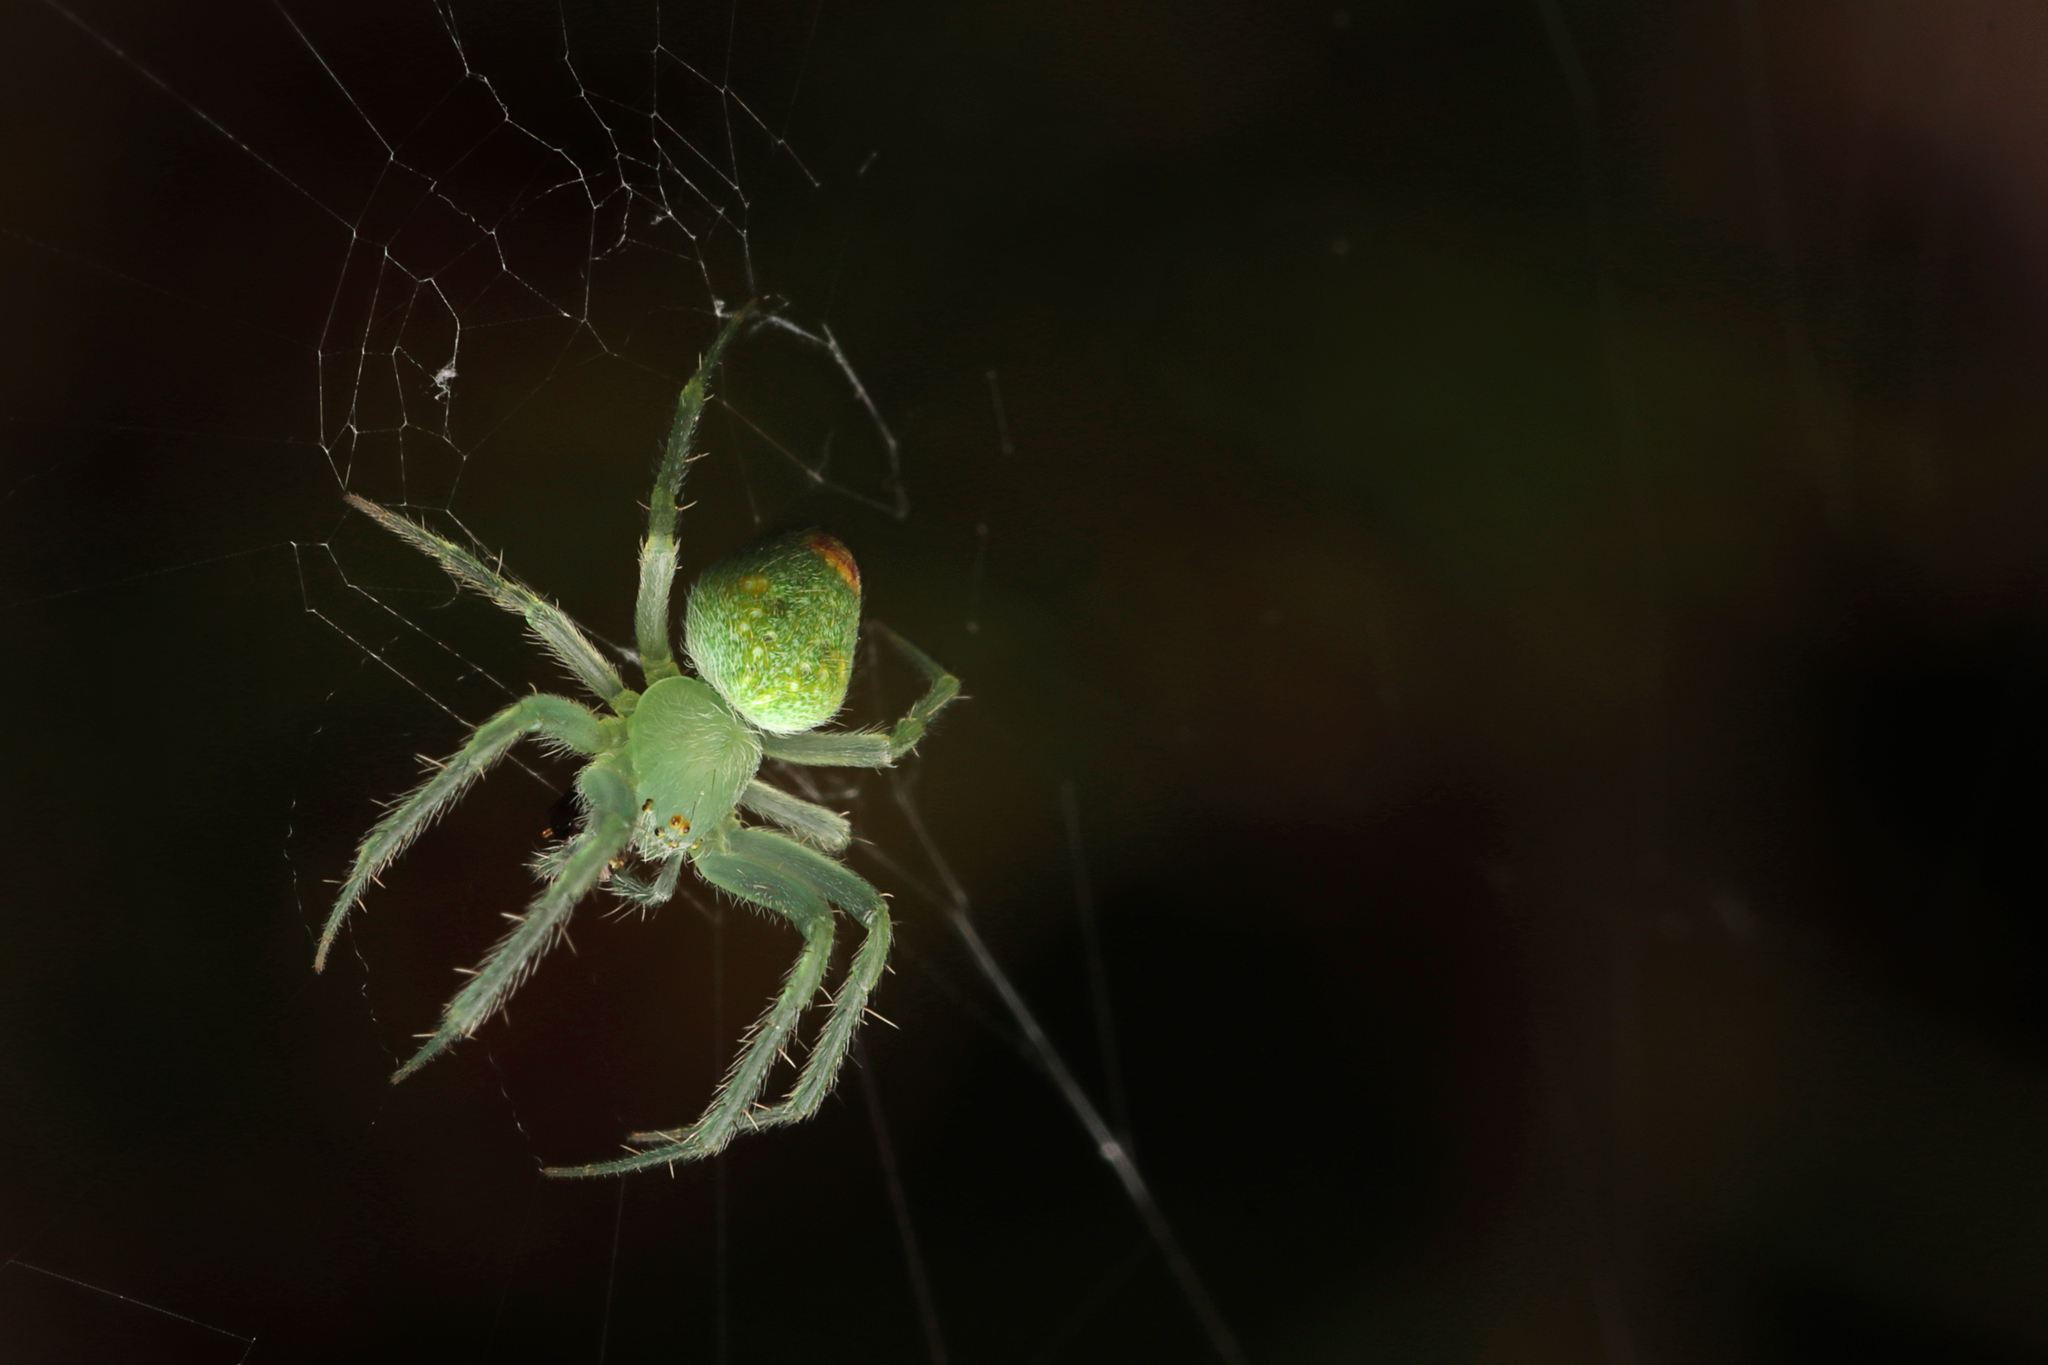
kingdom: Animalia
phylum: Arthropoda
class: Arachnida
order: Araneae
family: Araneidae
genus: Araneus
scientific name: Araneus circulissparsus
